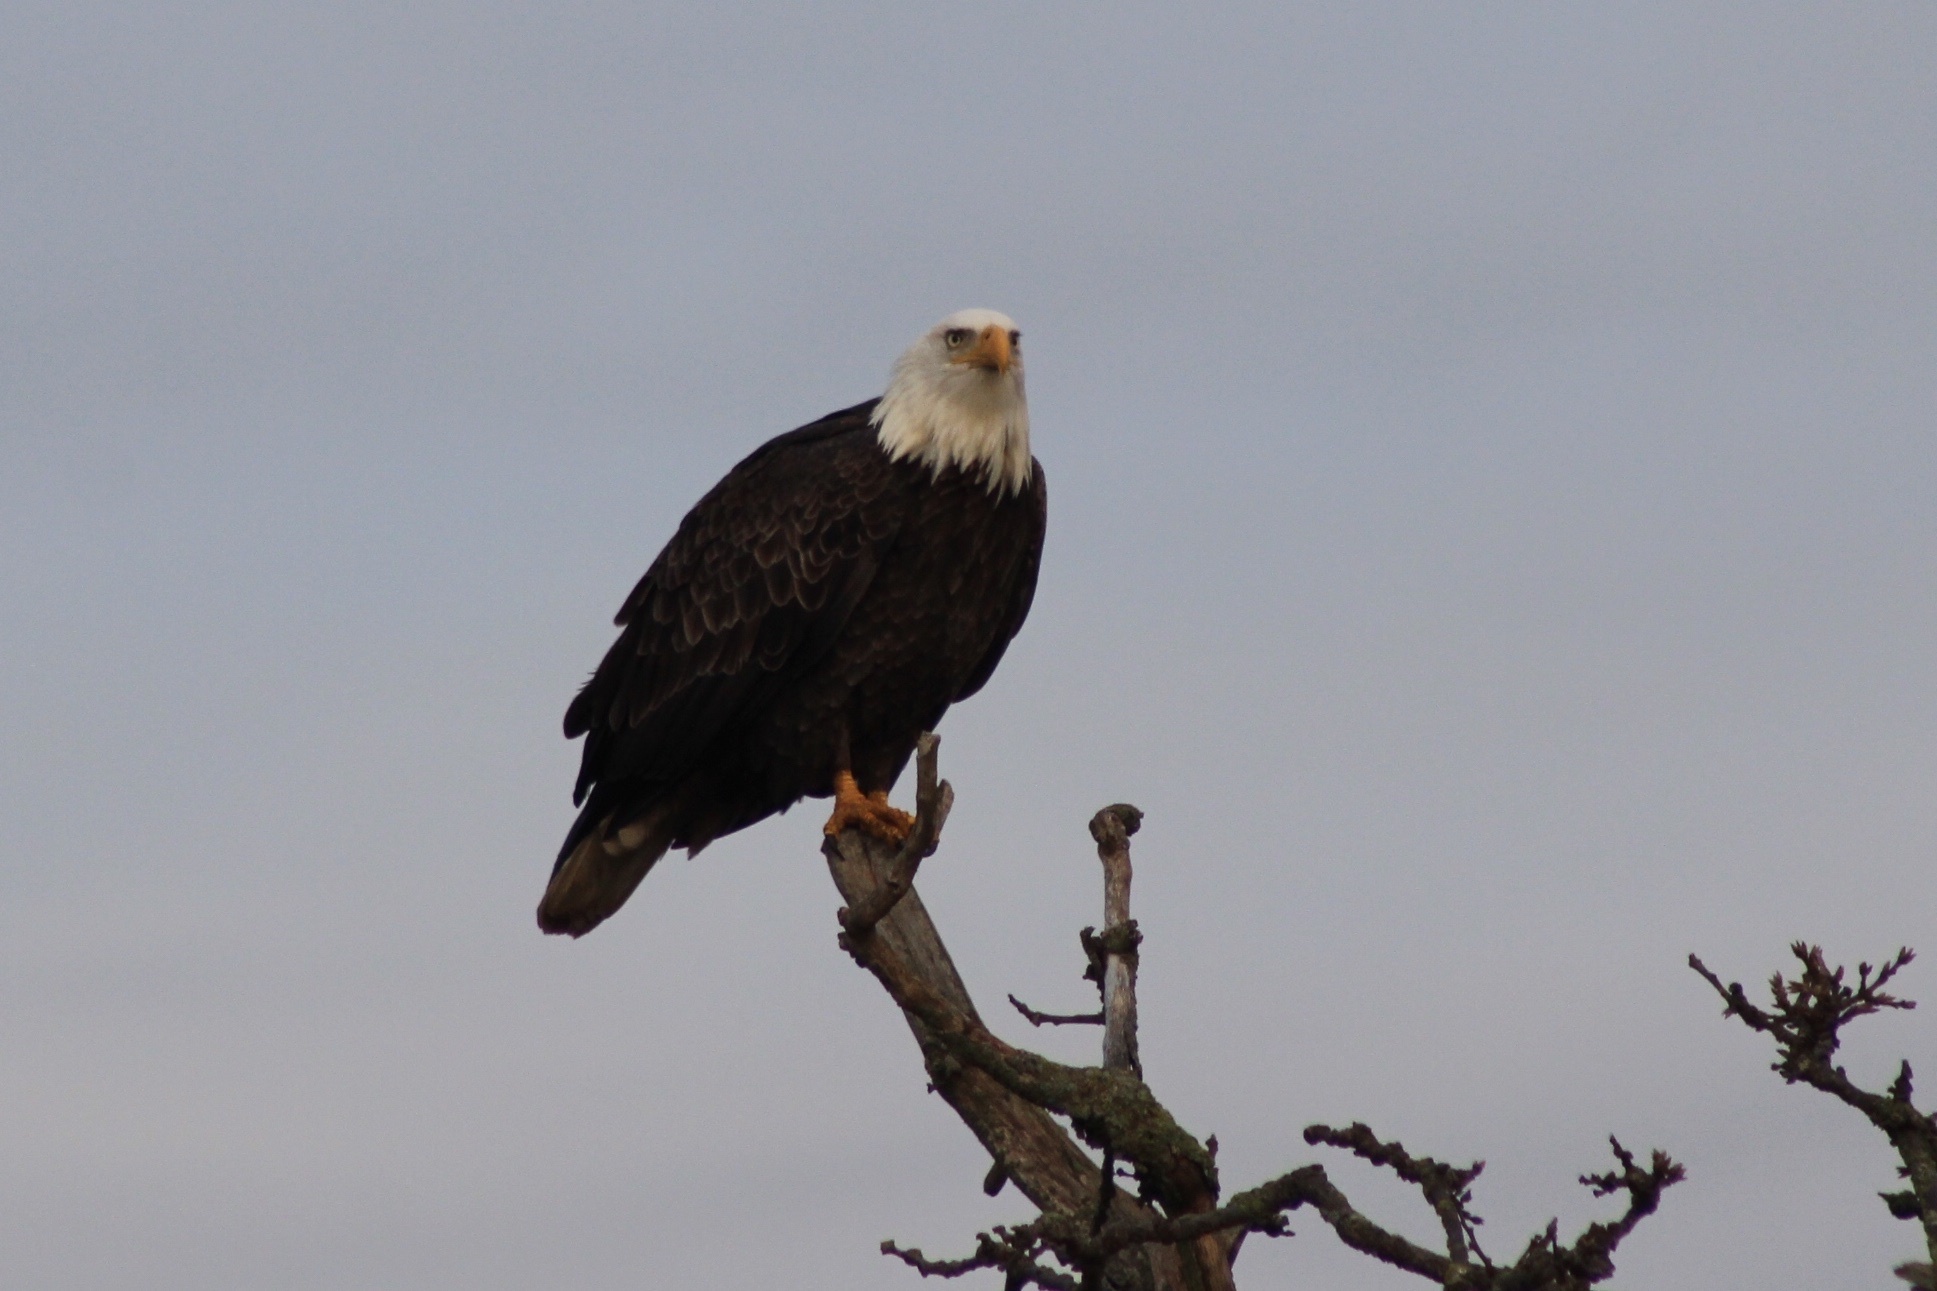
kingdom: Animalia
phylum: Chordata
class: Aves
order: Accipitriformes
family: Accipitridae
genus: Haliaeetus
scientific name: Haliaeetus leucocephalus
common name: Bald eagle
